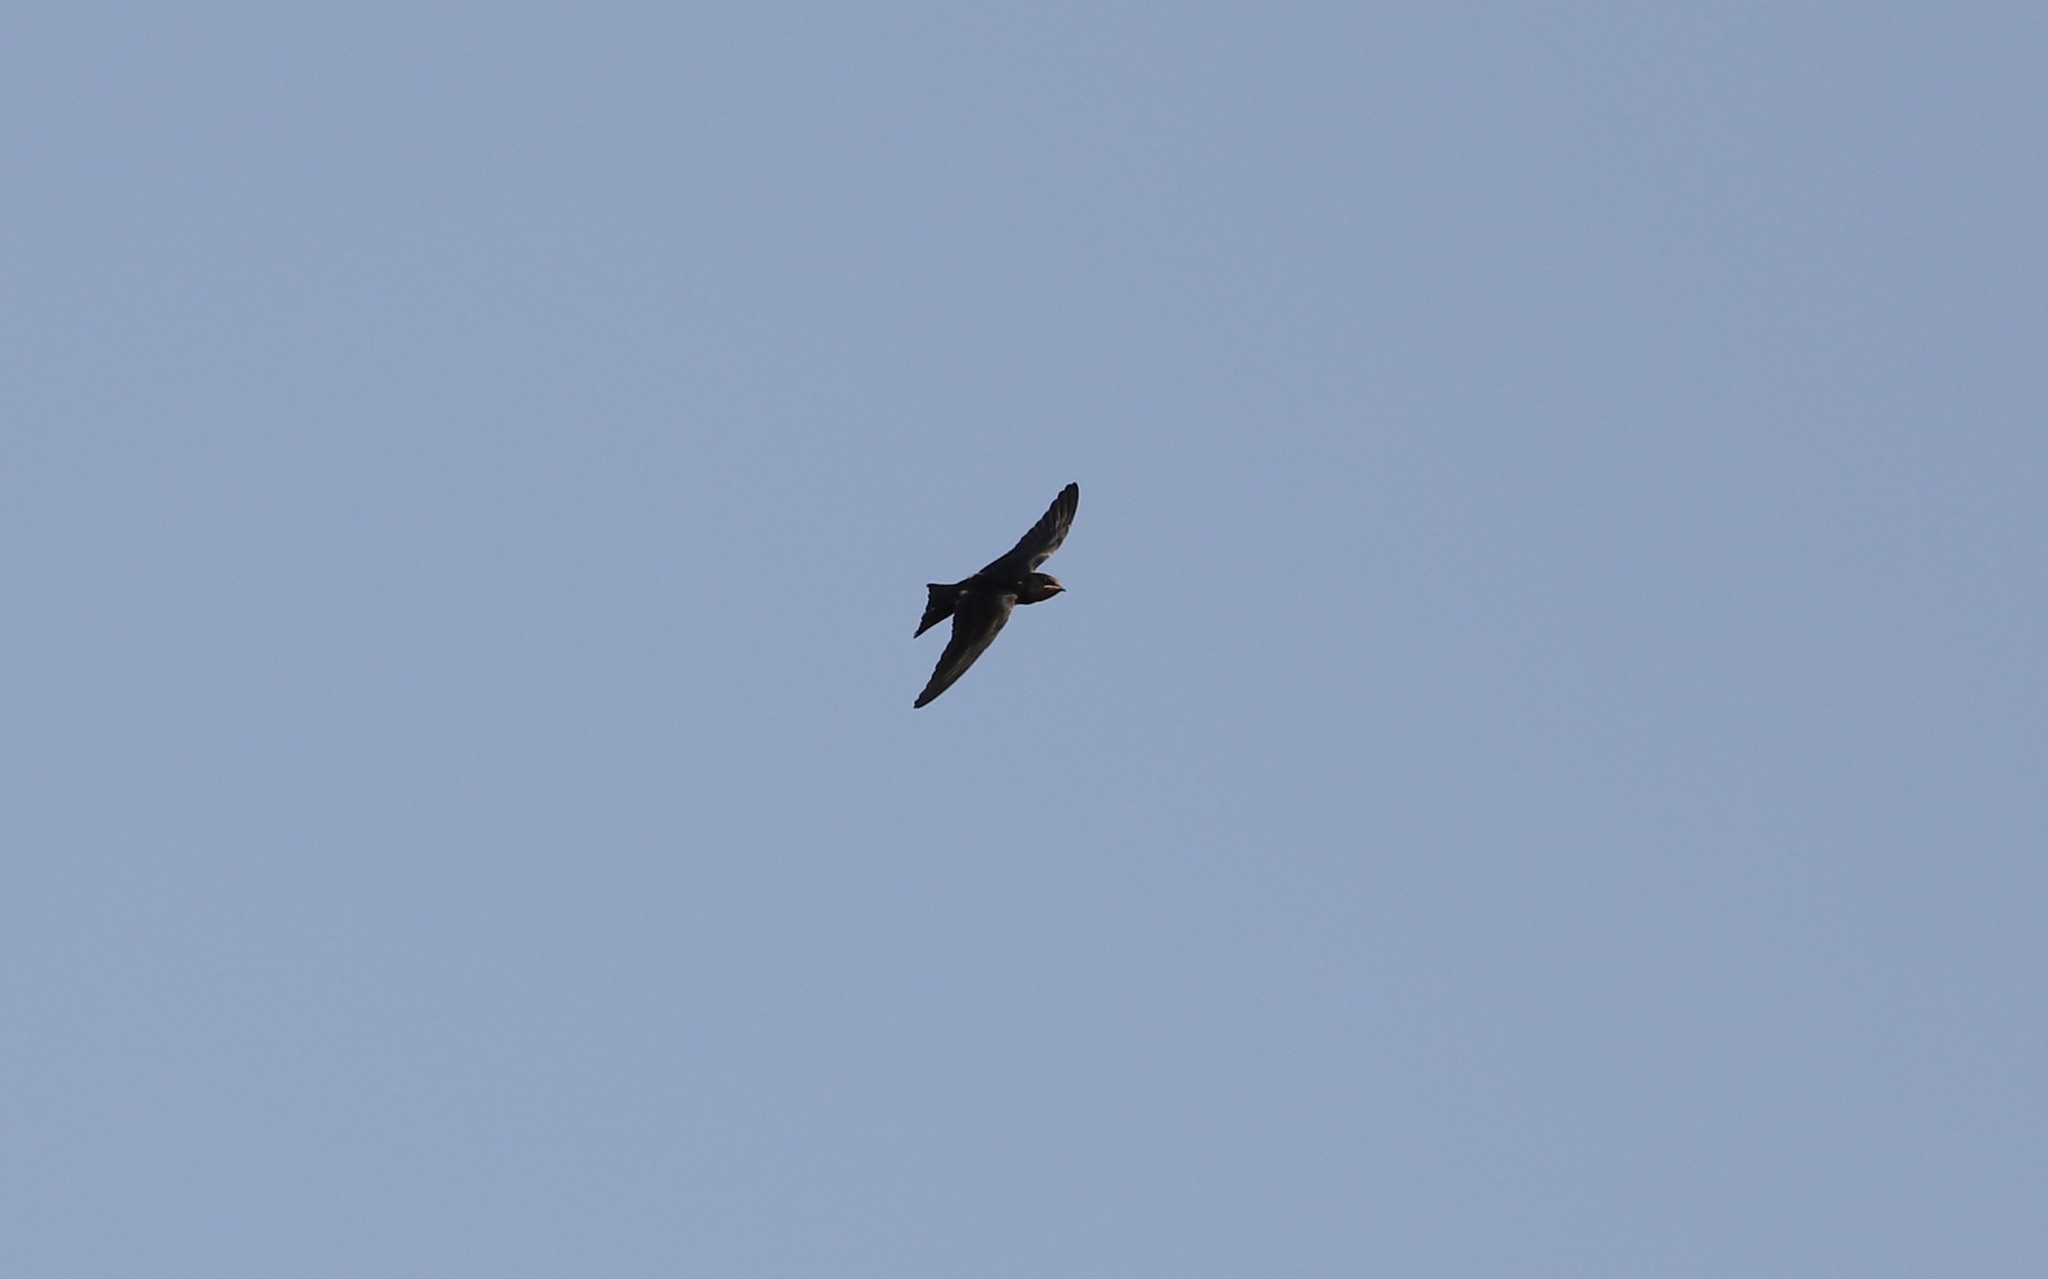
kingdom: Animalia
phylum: Chordata
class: Aves
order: Passeriformes
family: Hirundinidae
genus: Hirundo
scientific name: Hirundo rustica
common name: Barn swallow
